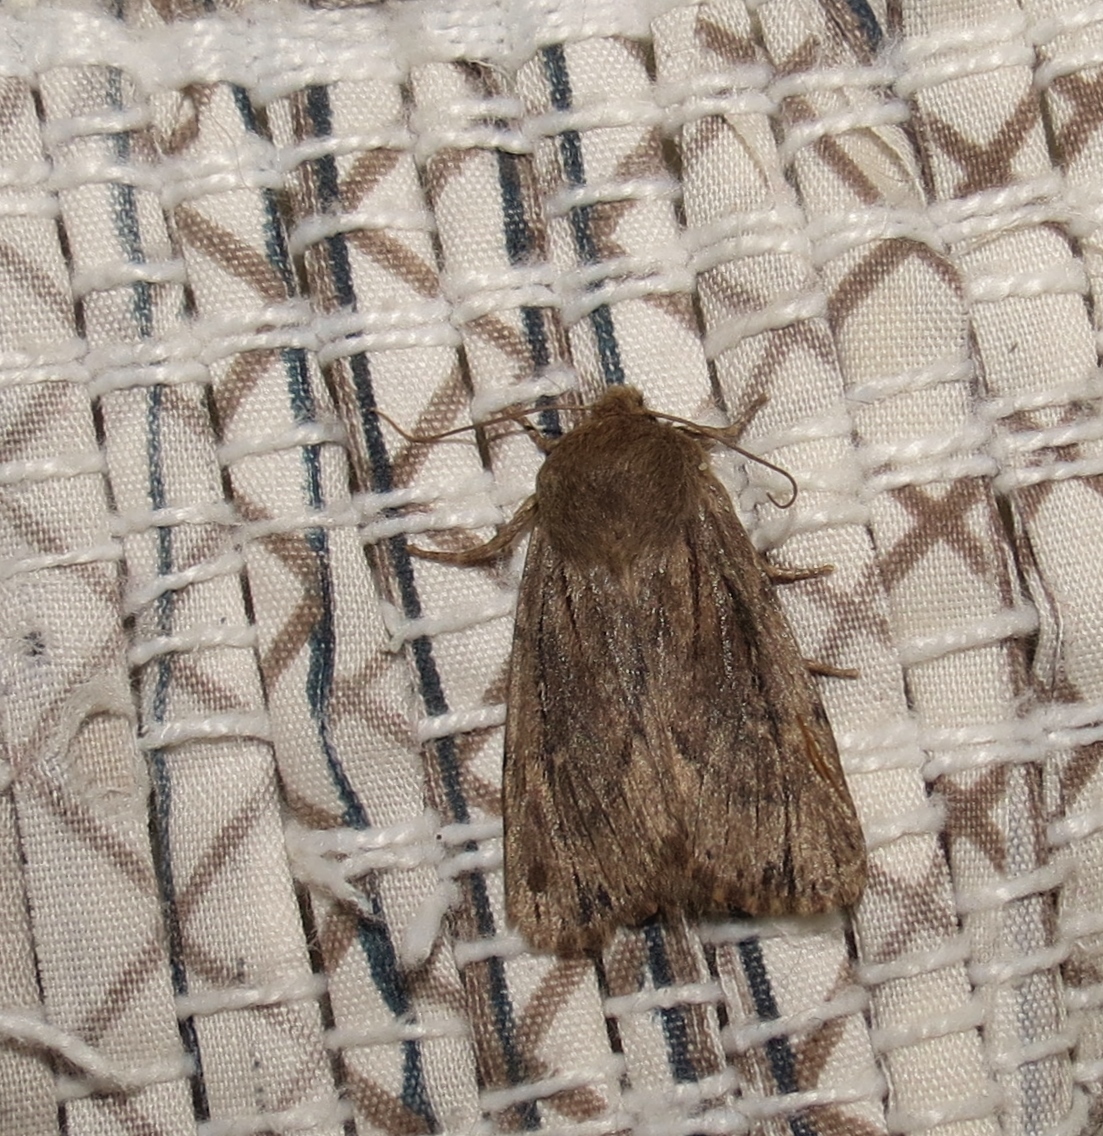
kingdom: Animalia
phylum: Arthropoda
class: Insecta
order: Lepidoptera
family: Noctuidae
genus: Ufeus
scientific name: Ufeus satyricus
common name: Brown satyr moth
